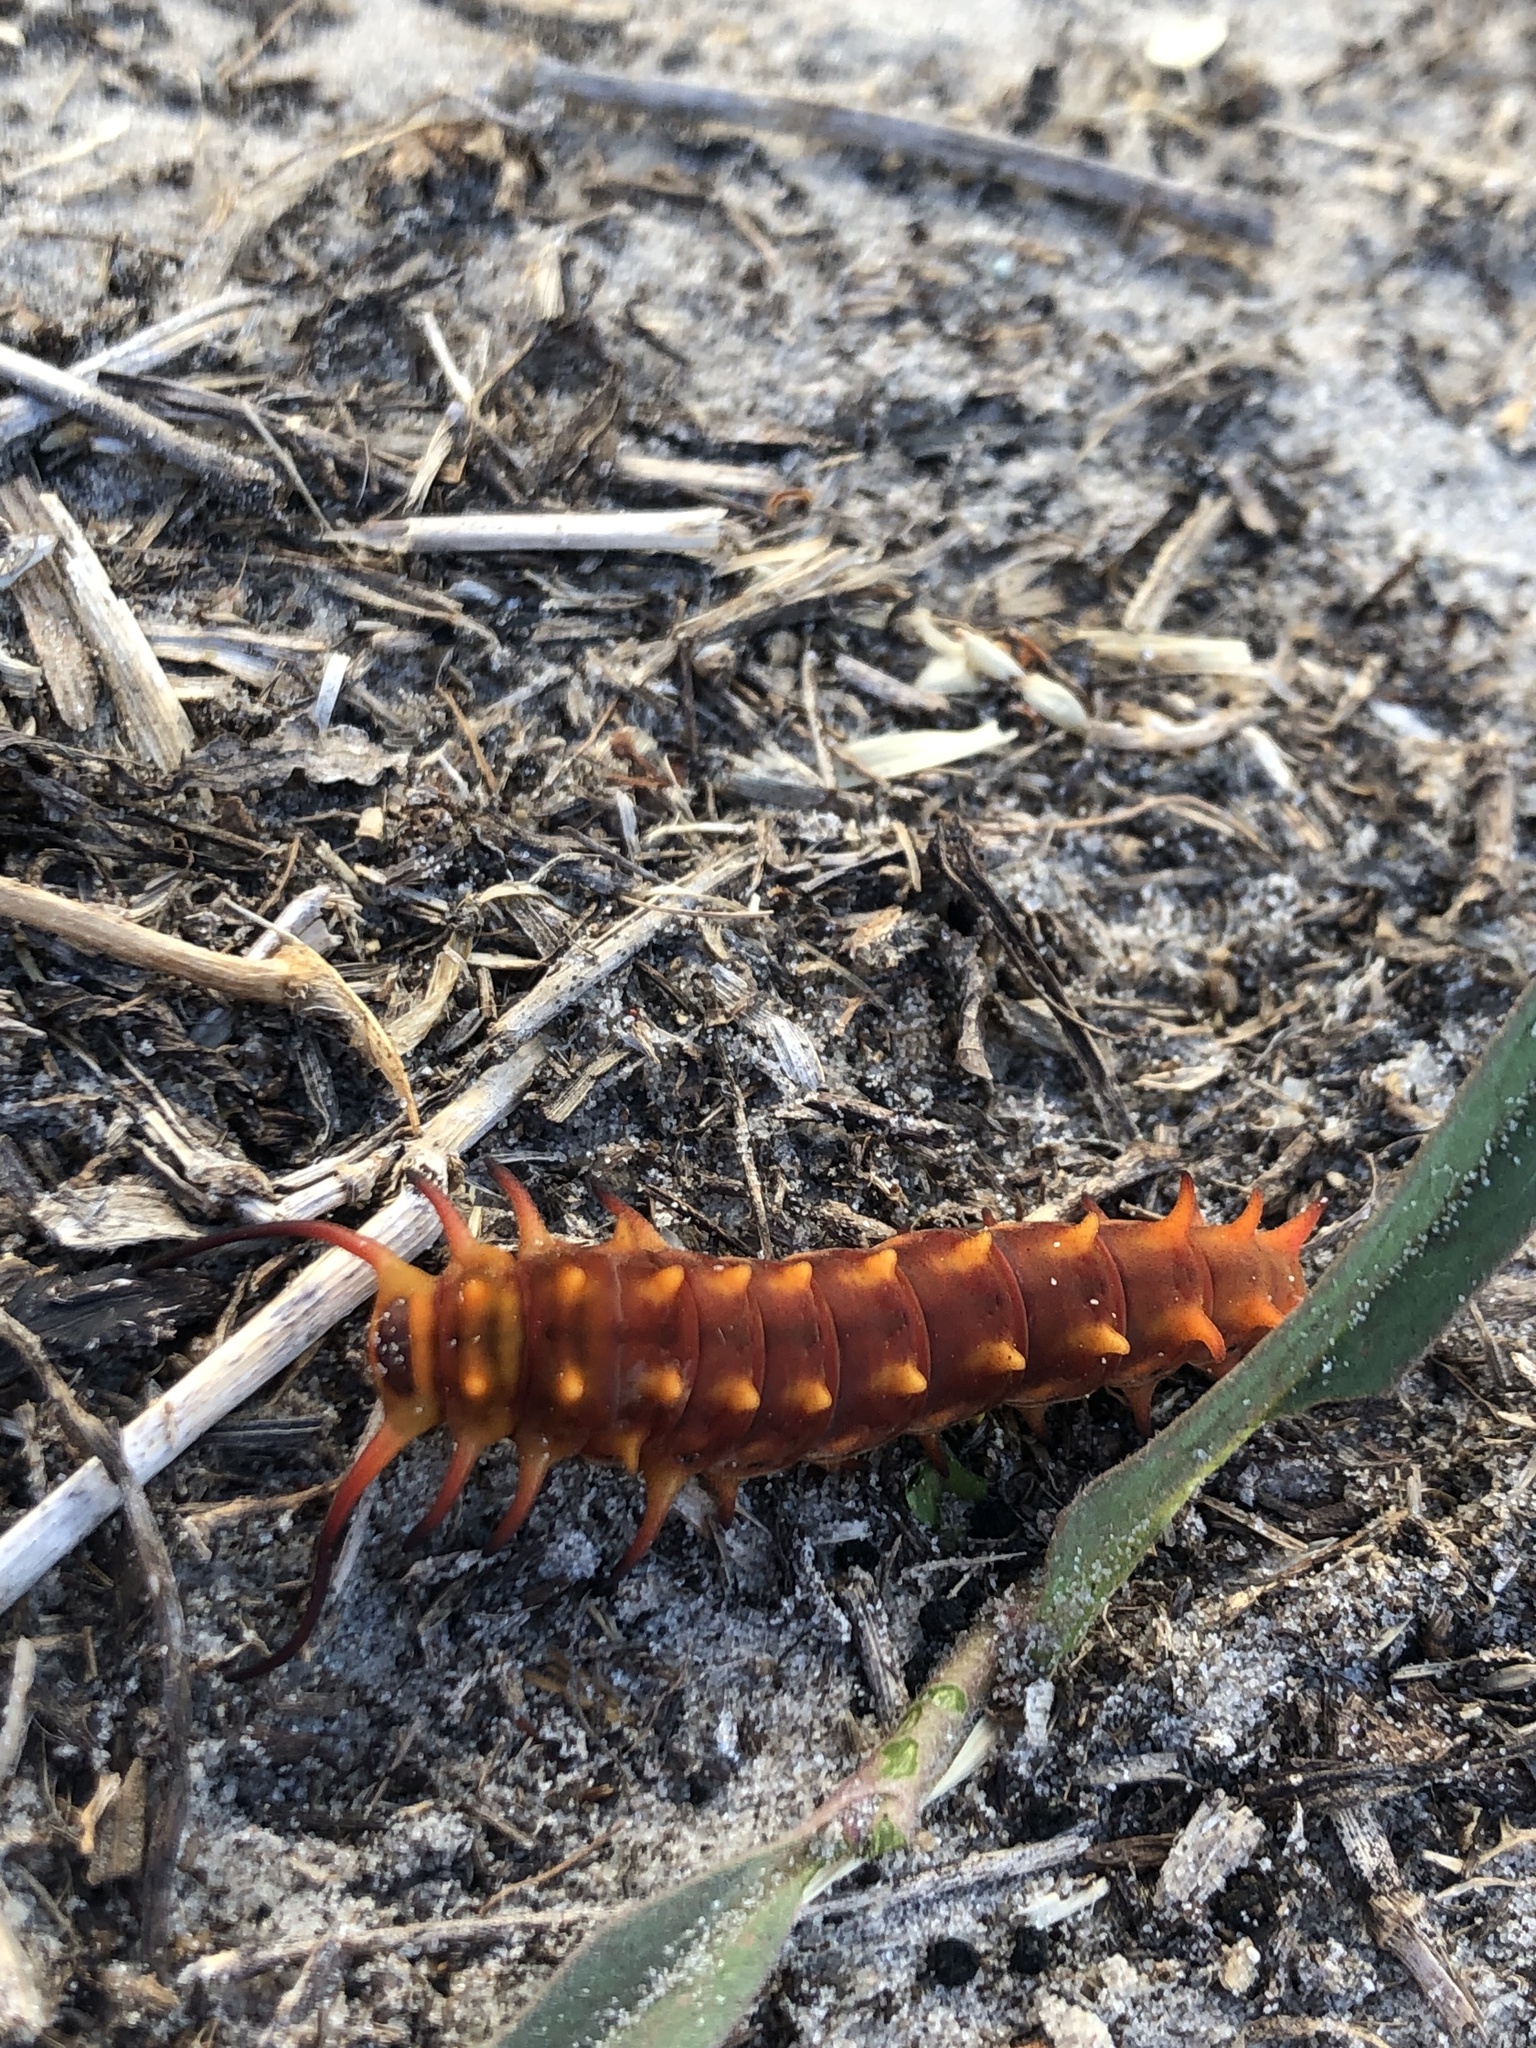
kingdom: Animalia
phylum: Arthropoda
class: Insecta
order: Lepidoptera
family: Papilionidae
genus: Battus
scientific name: Battus philenor
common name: Pipevine swallowtail
